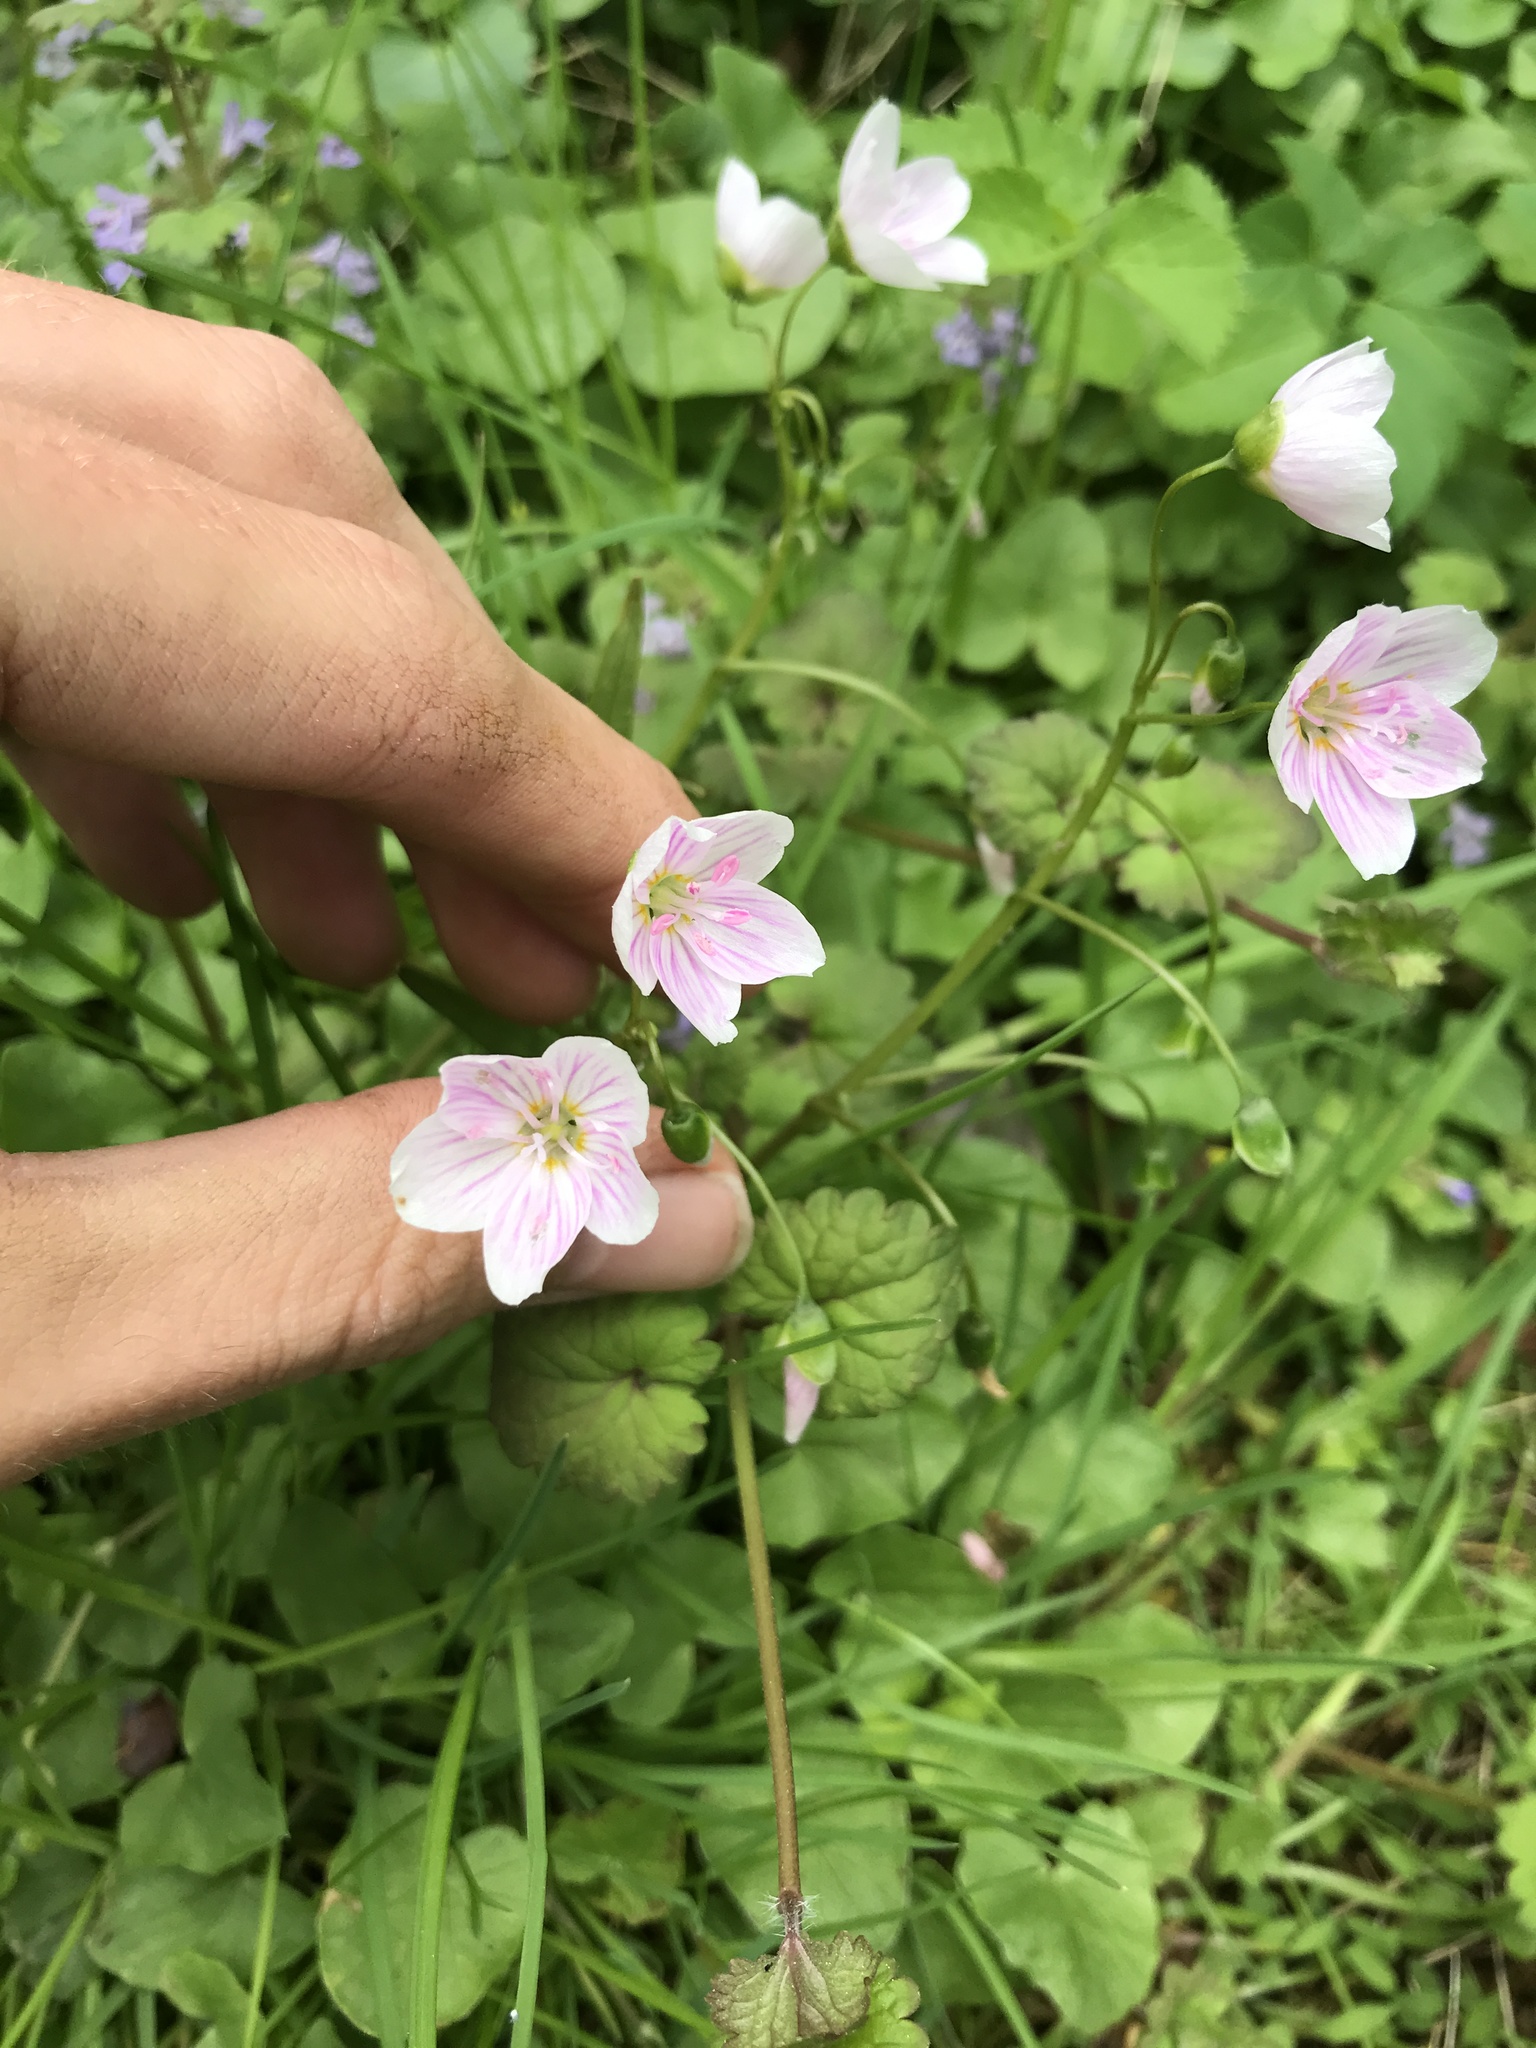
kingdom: Plantae
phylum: Tracheophyta
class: Magnoliopsida
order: Caryophyllales
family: Montiaceae
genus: Claytonia
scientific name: Claytonia virginica
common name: Virginia springbeauty
